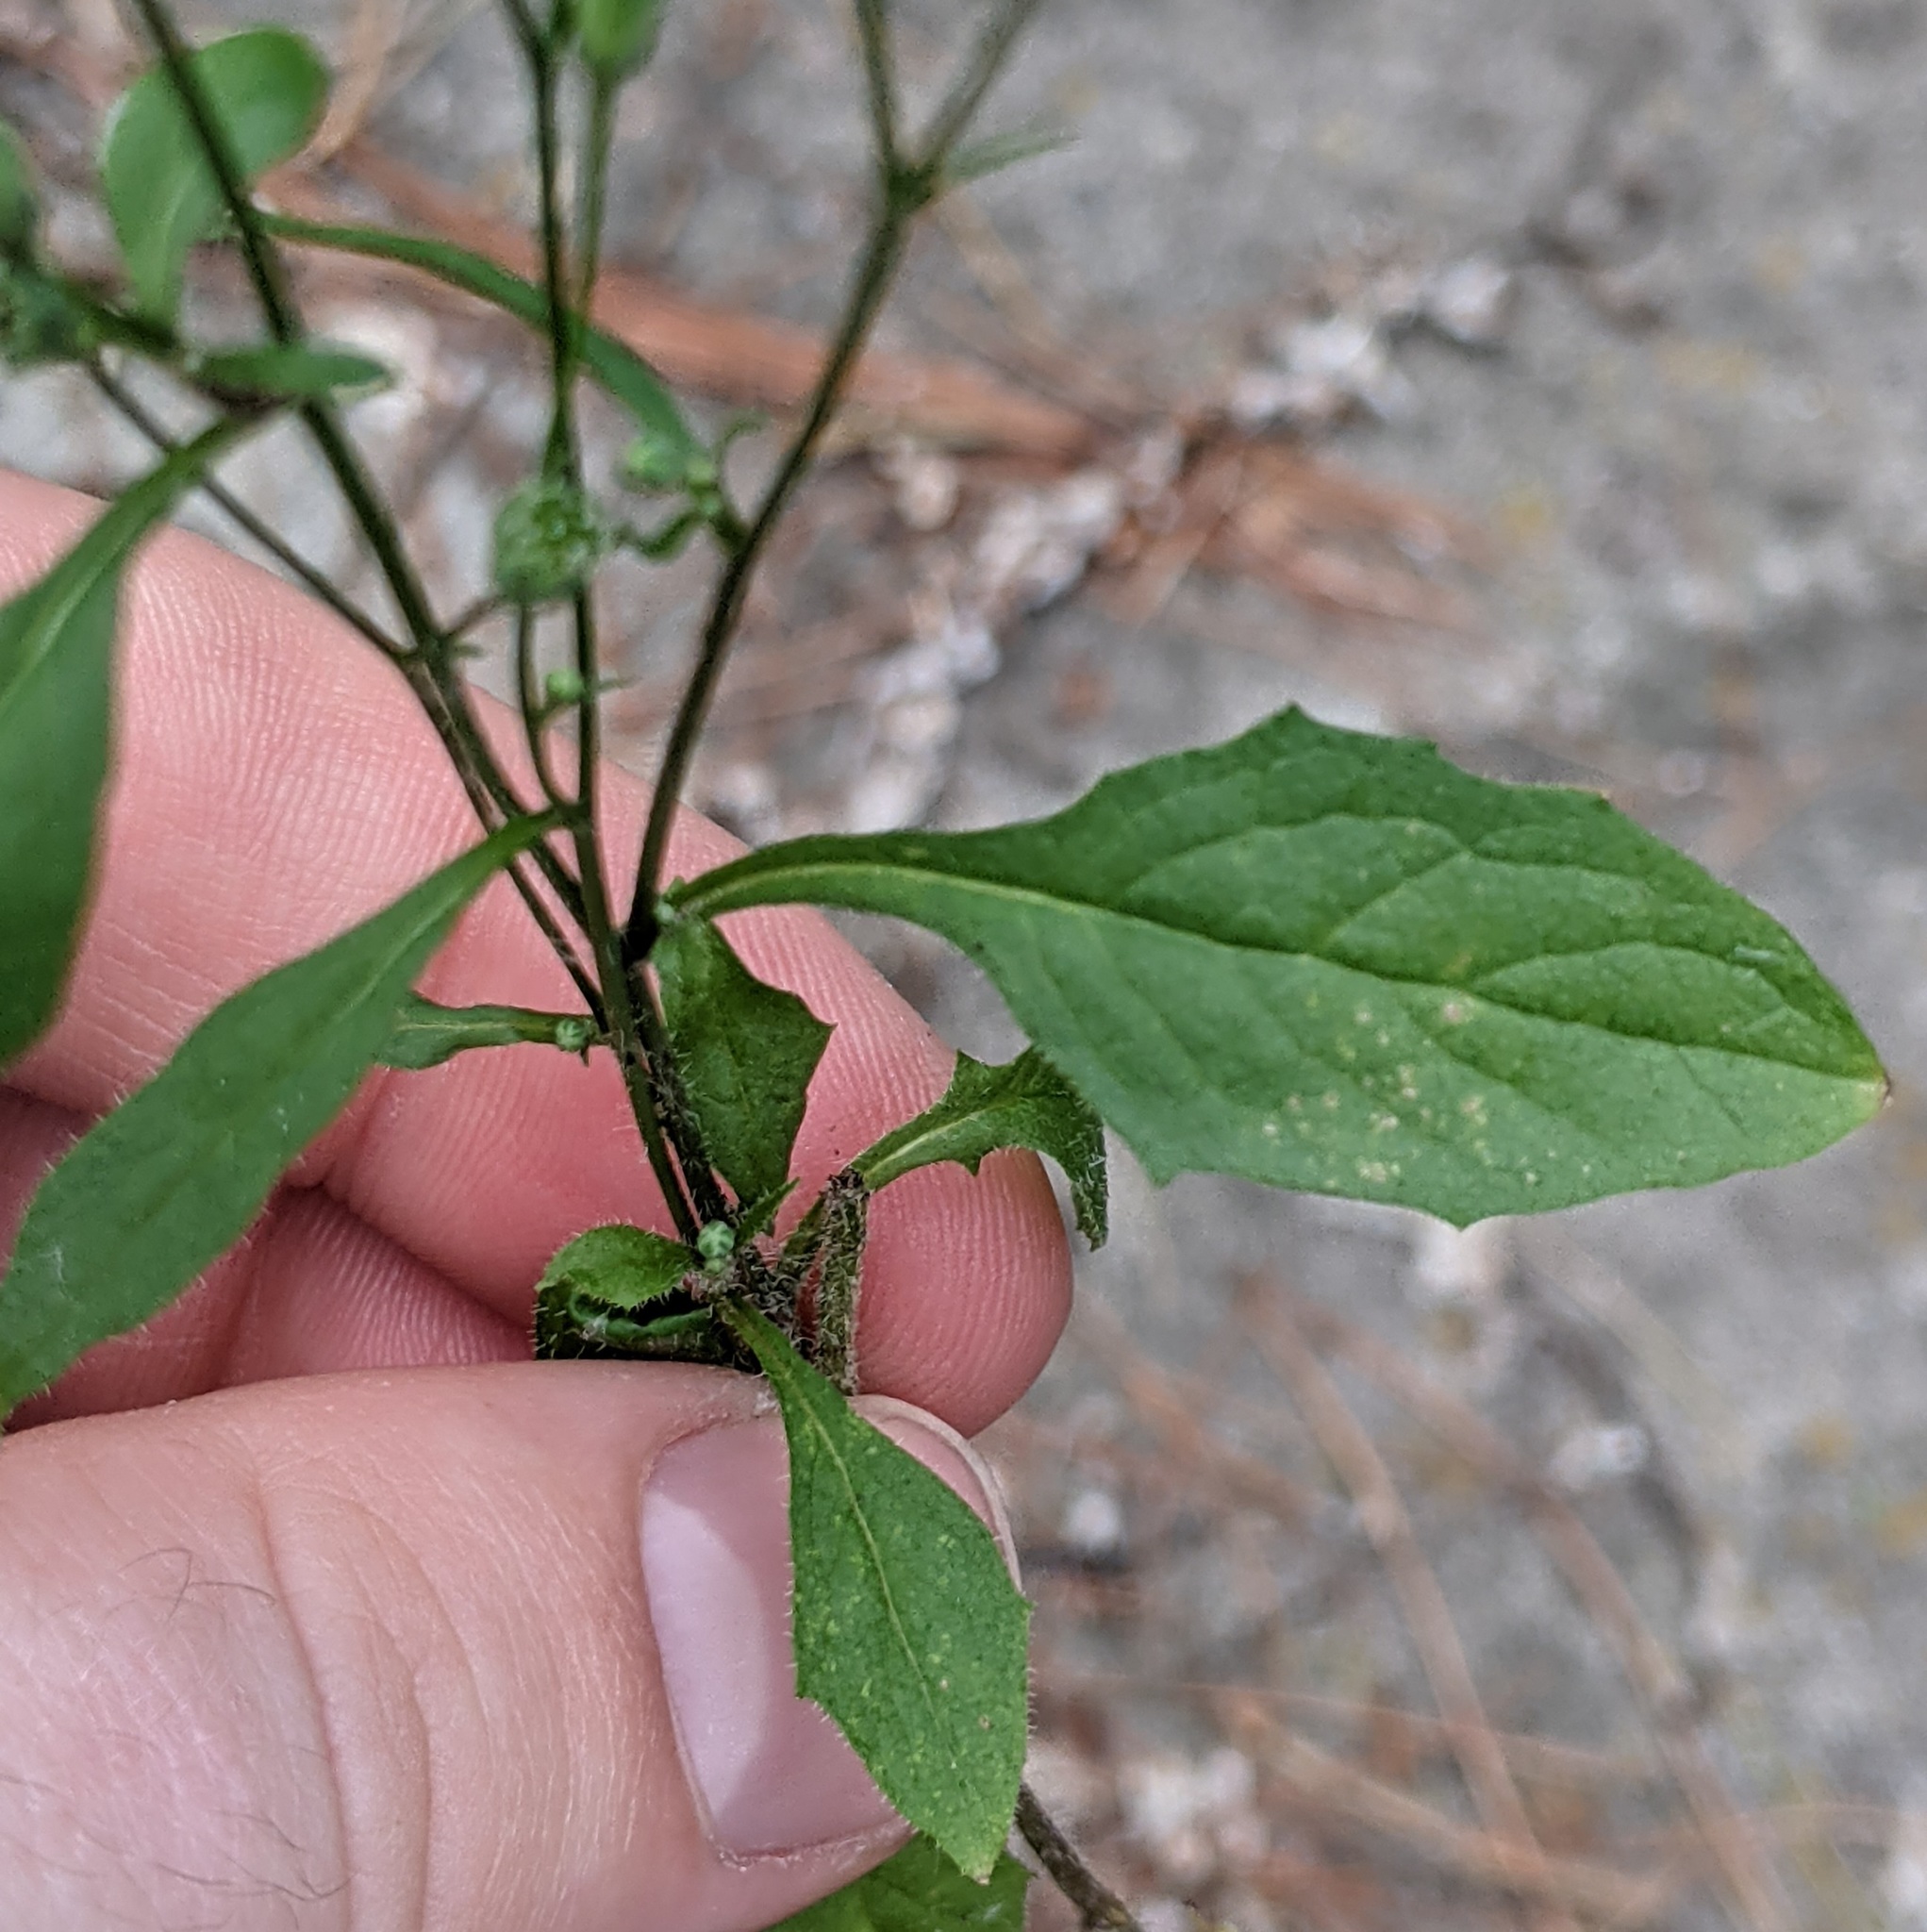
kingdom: Plantae
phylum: Tracheophyta
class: Magnoliopsida
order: Asterales
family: Asteraceae
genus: Lapsana
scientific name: Lapsana communis
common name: Nipplewort
